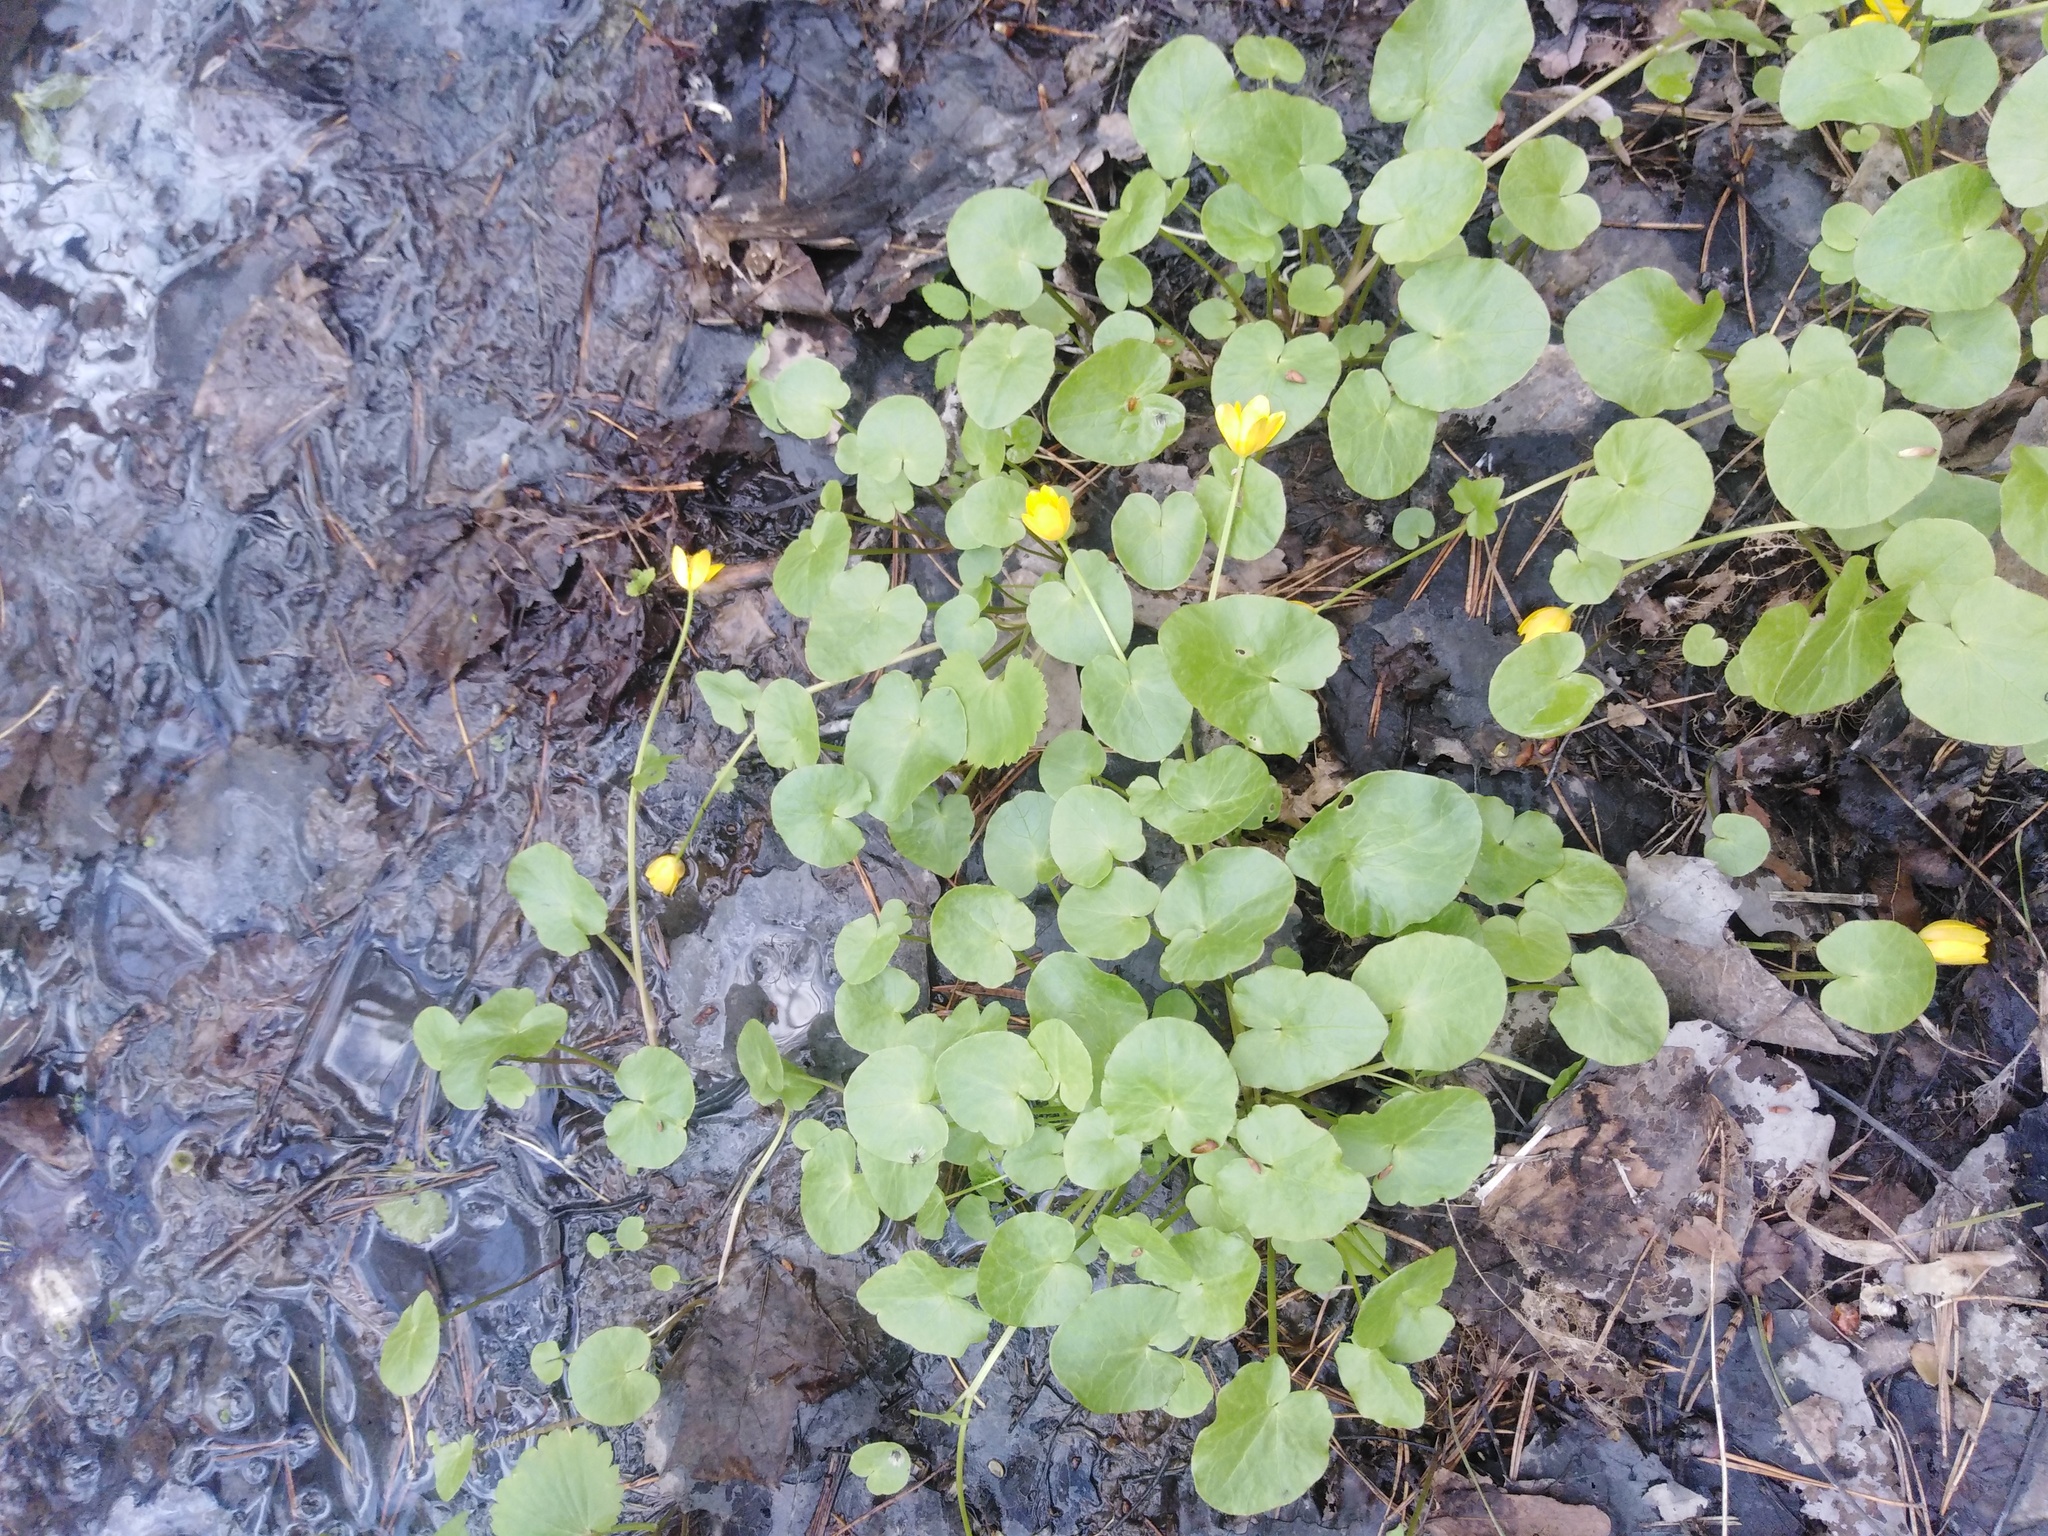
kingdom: Plantae
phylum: Tracheophyta
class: Magnoliopsida
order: Ranunculales
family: Ranunculaceae
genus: Ficaria
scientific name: Ficaria verna
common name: Lesser celandine
